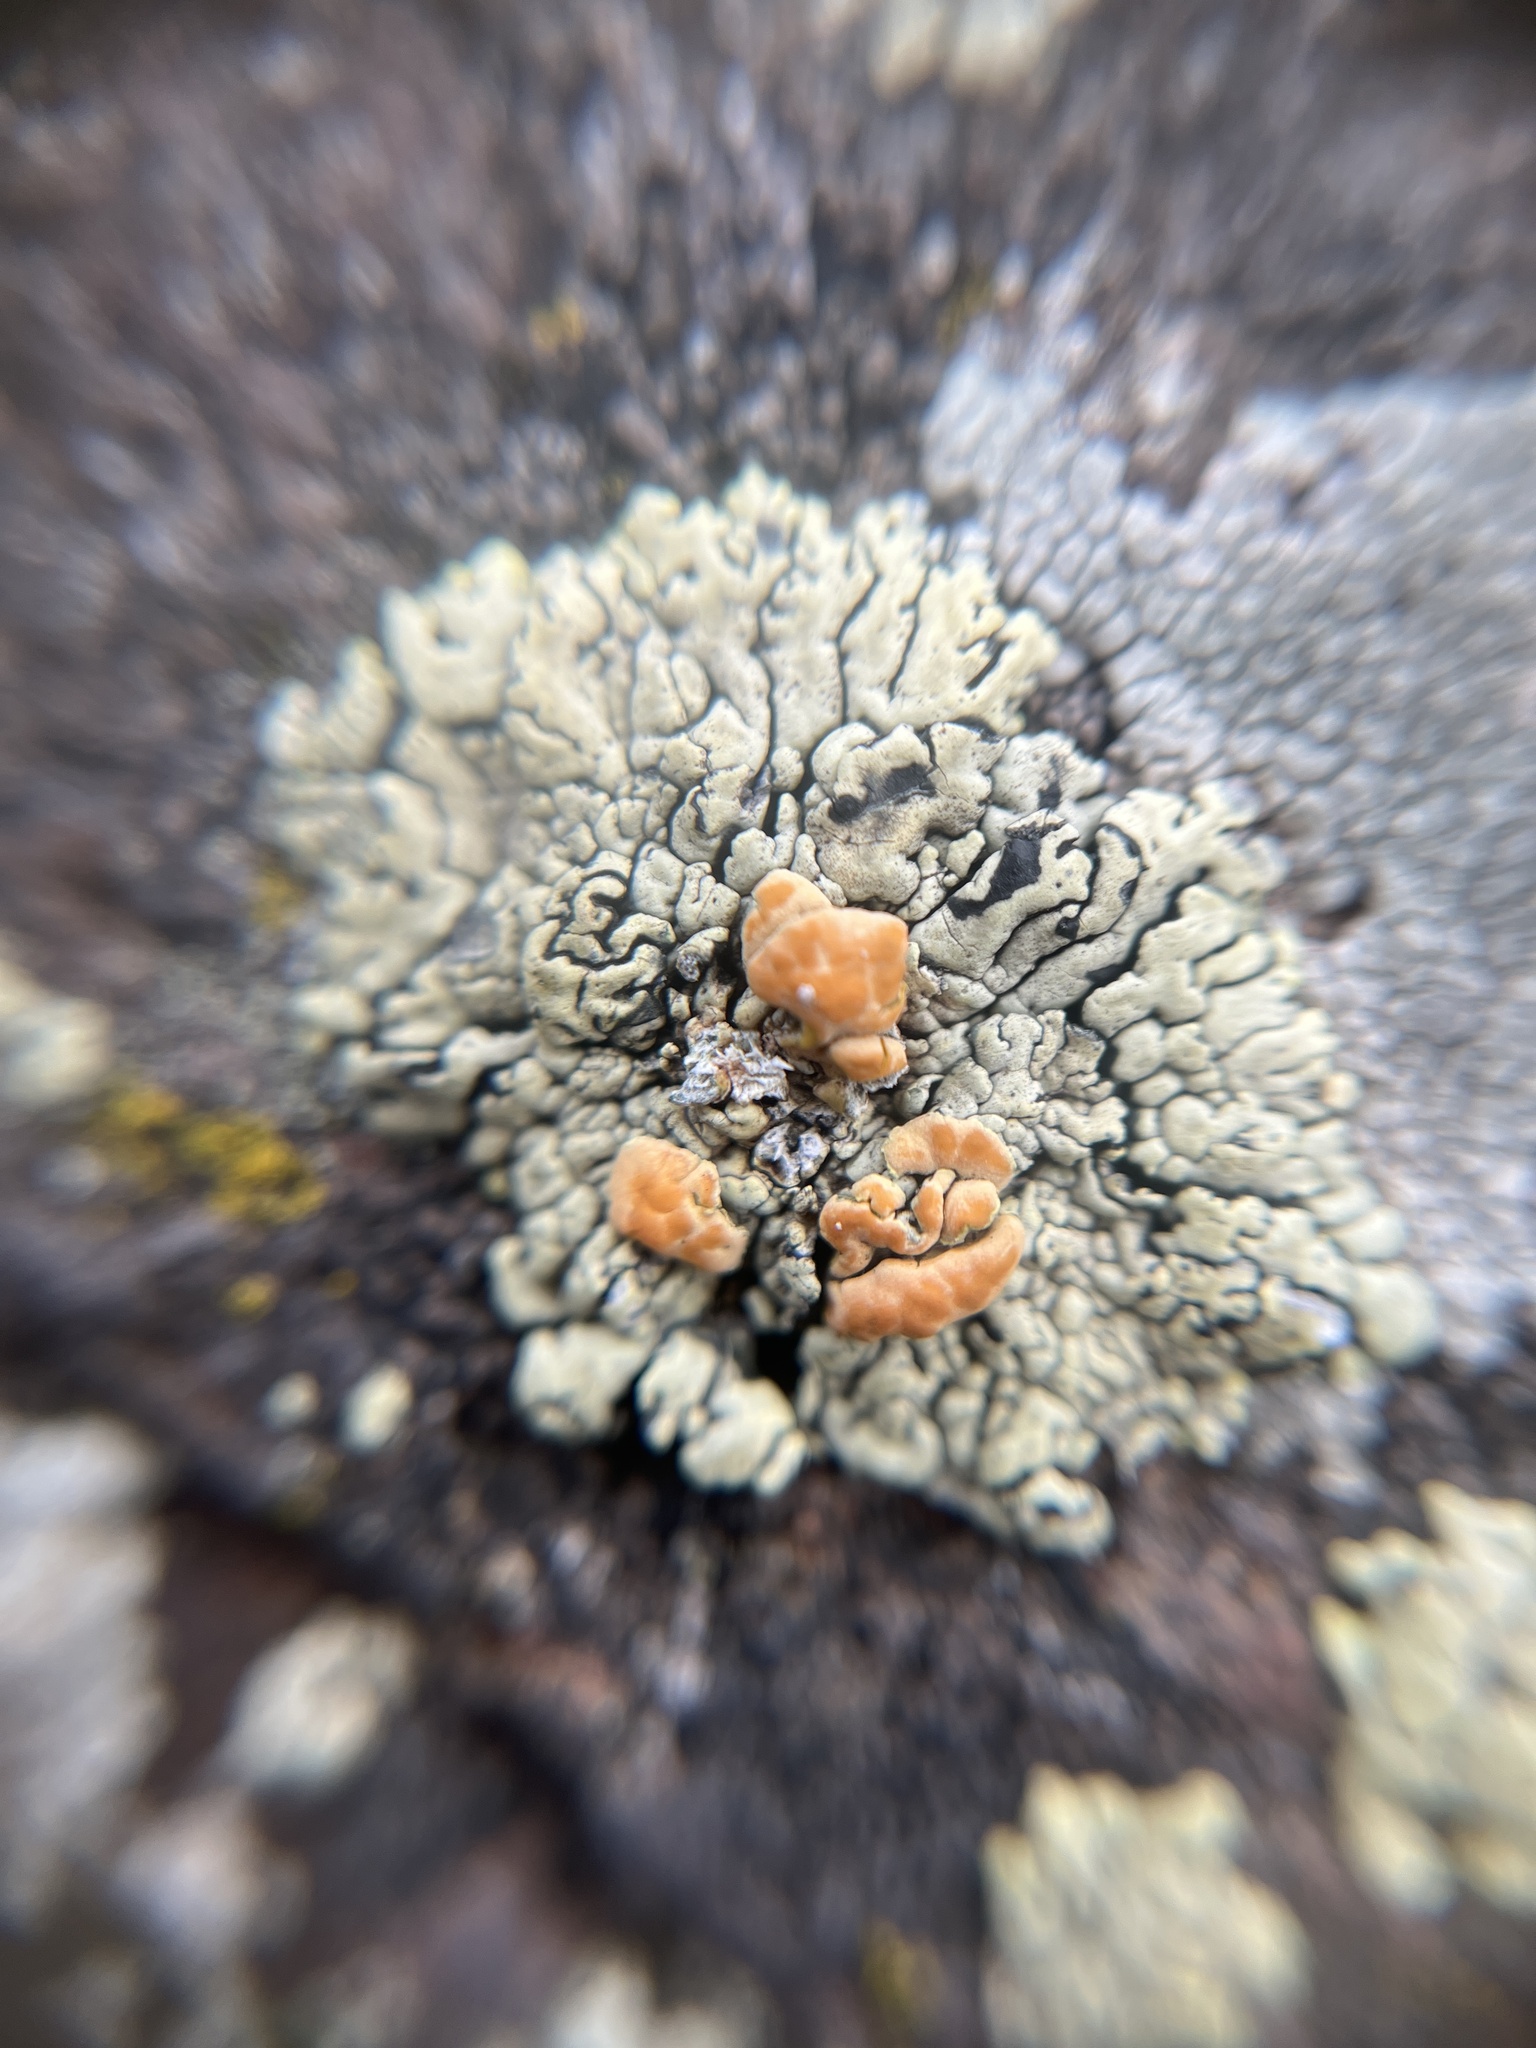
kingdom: Fungi
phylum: Ascomycota
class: Lecanoromycetes
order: Lecanorales
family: Lecanoraceae
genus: Omphalodina
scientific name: Omphalodina chrysoleuca
